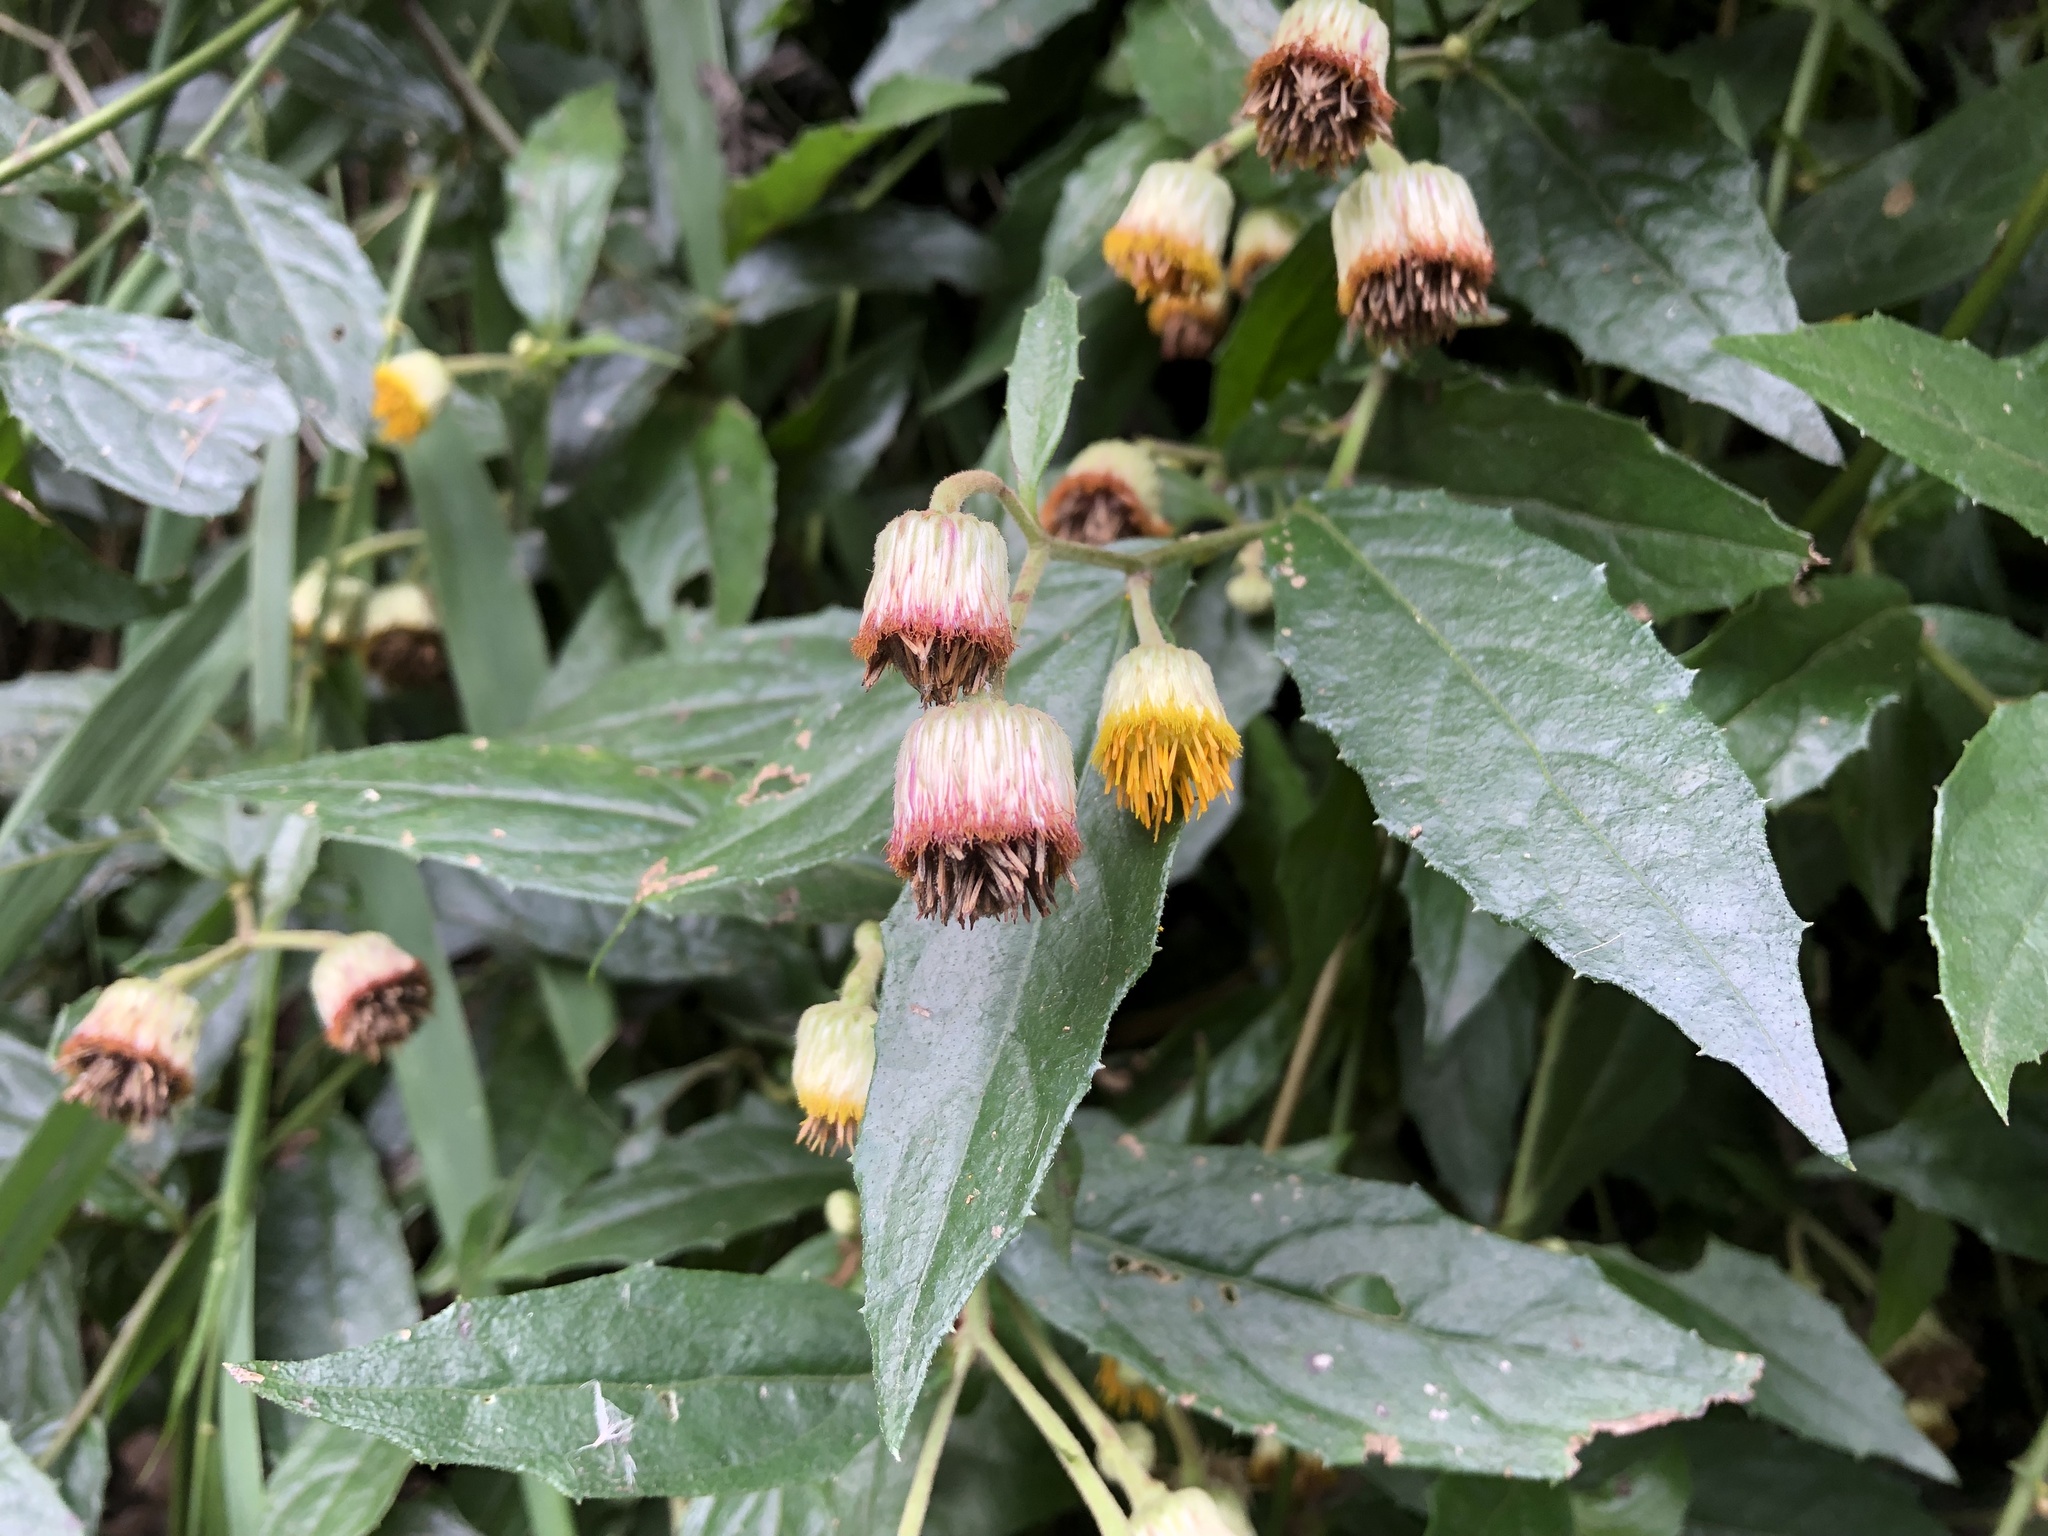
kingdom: Plantae
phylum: Tracheophyta
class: Magnoliopsida
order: Asterales
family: Asteraceae
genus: Blumea
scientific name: Blumea megacephala
